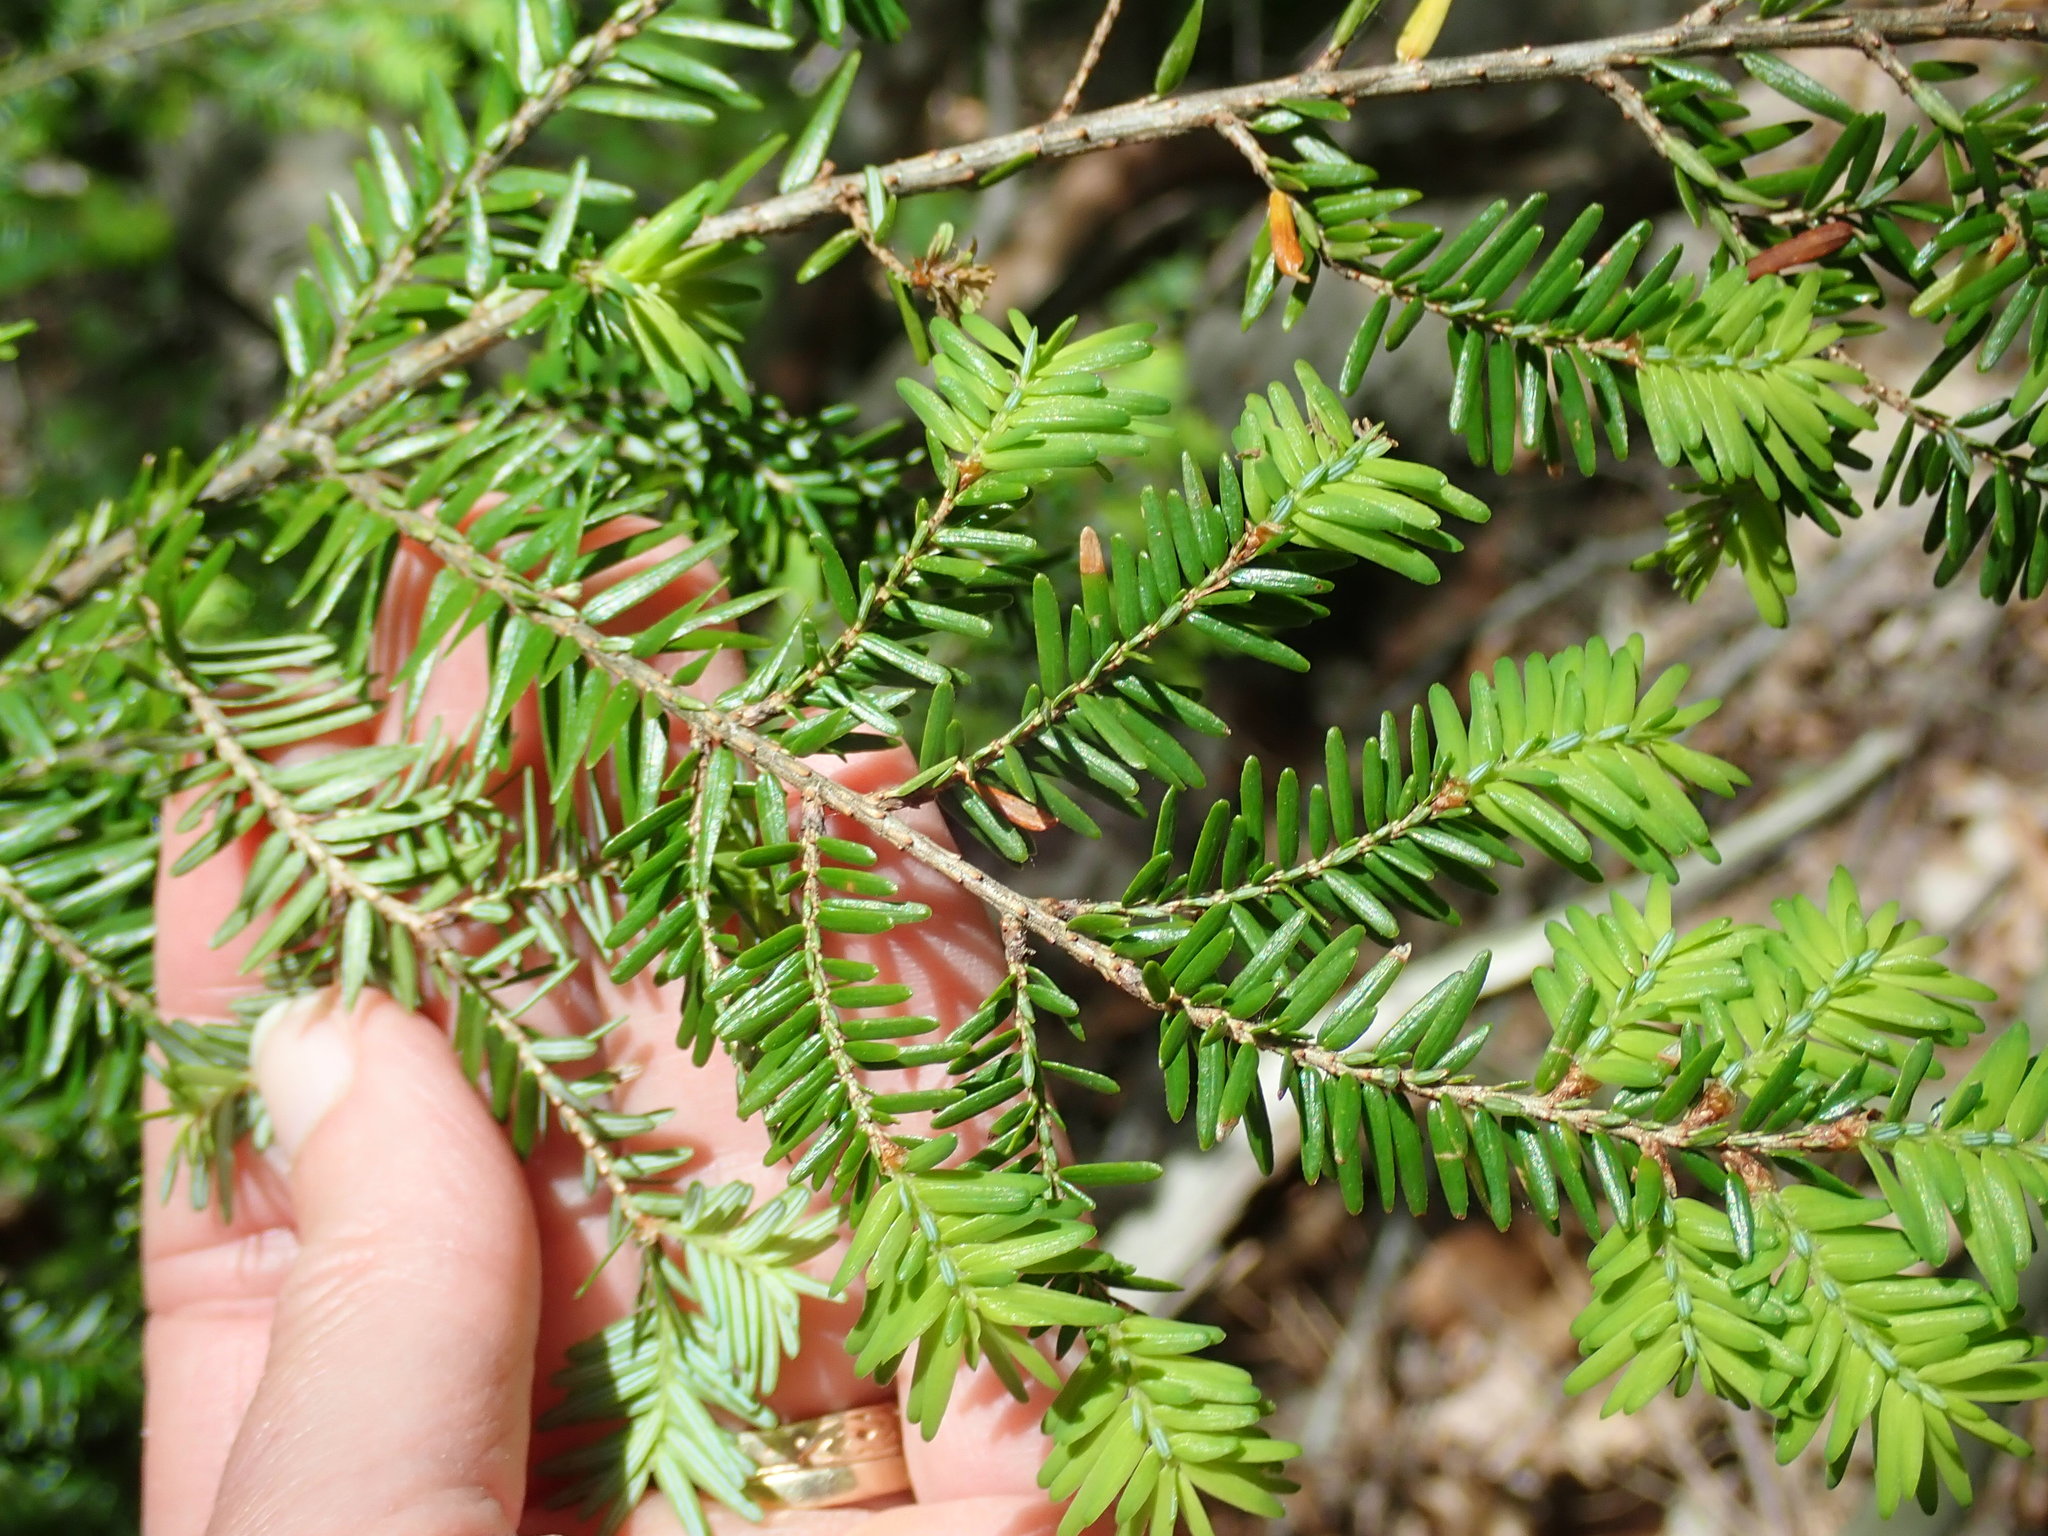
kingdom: Plantae
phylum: Tracheophyta
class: Pinopsida
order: Pinales
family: Pinaceae
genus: Tsuga
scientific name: Tsuga canadensis
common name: Eastern hemlock
